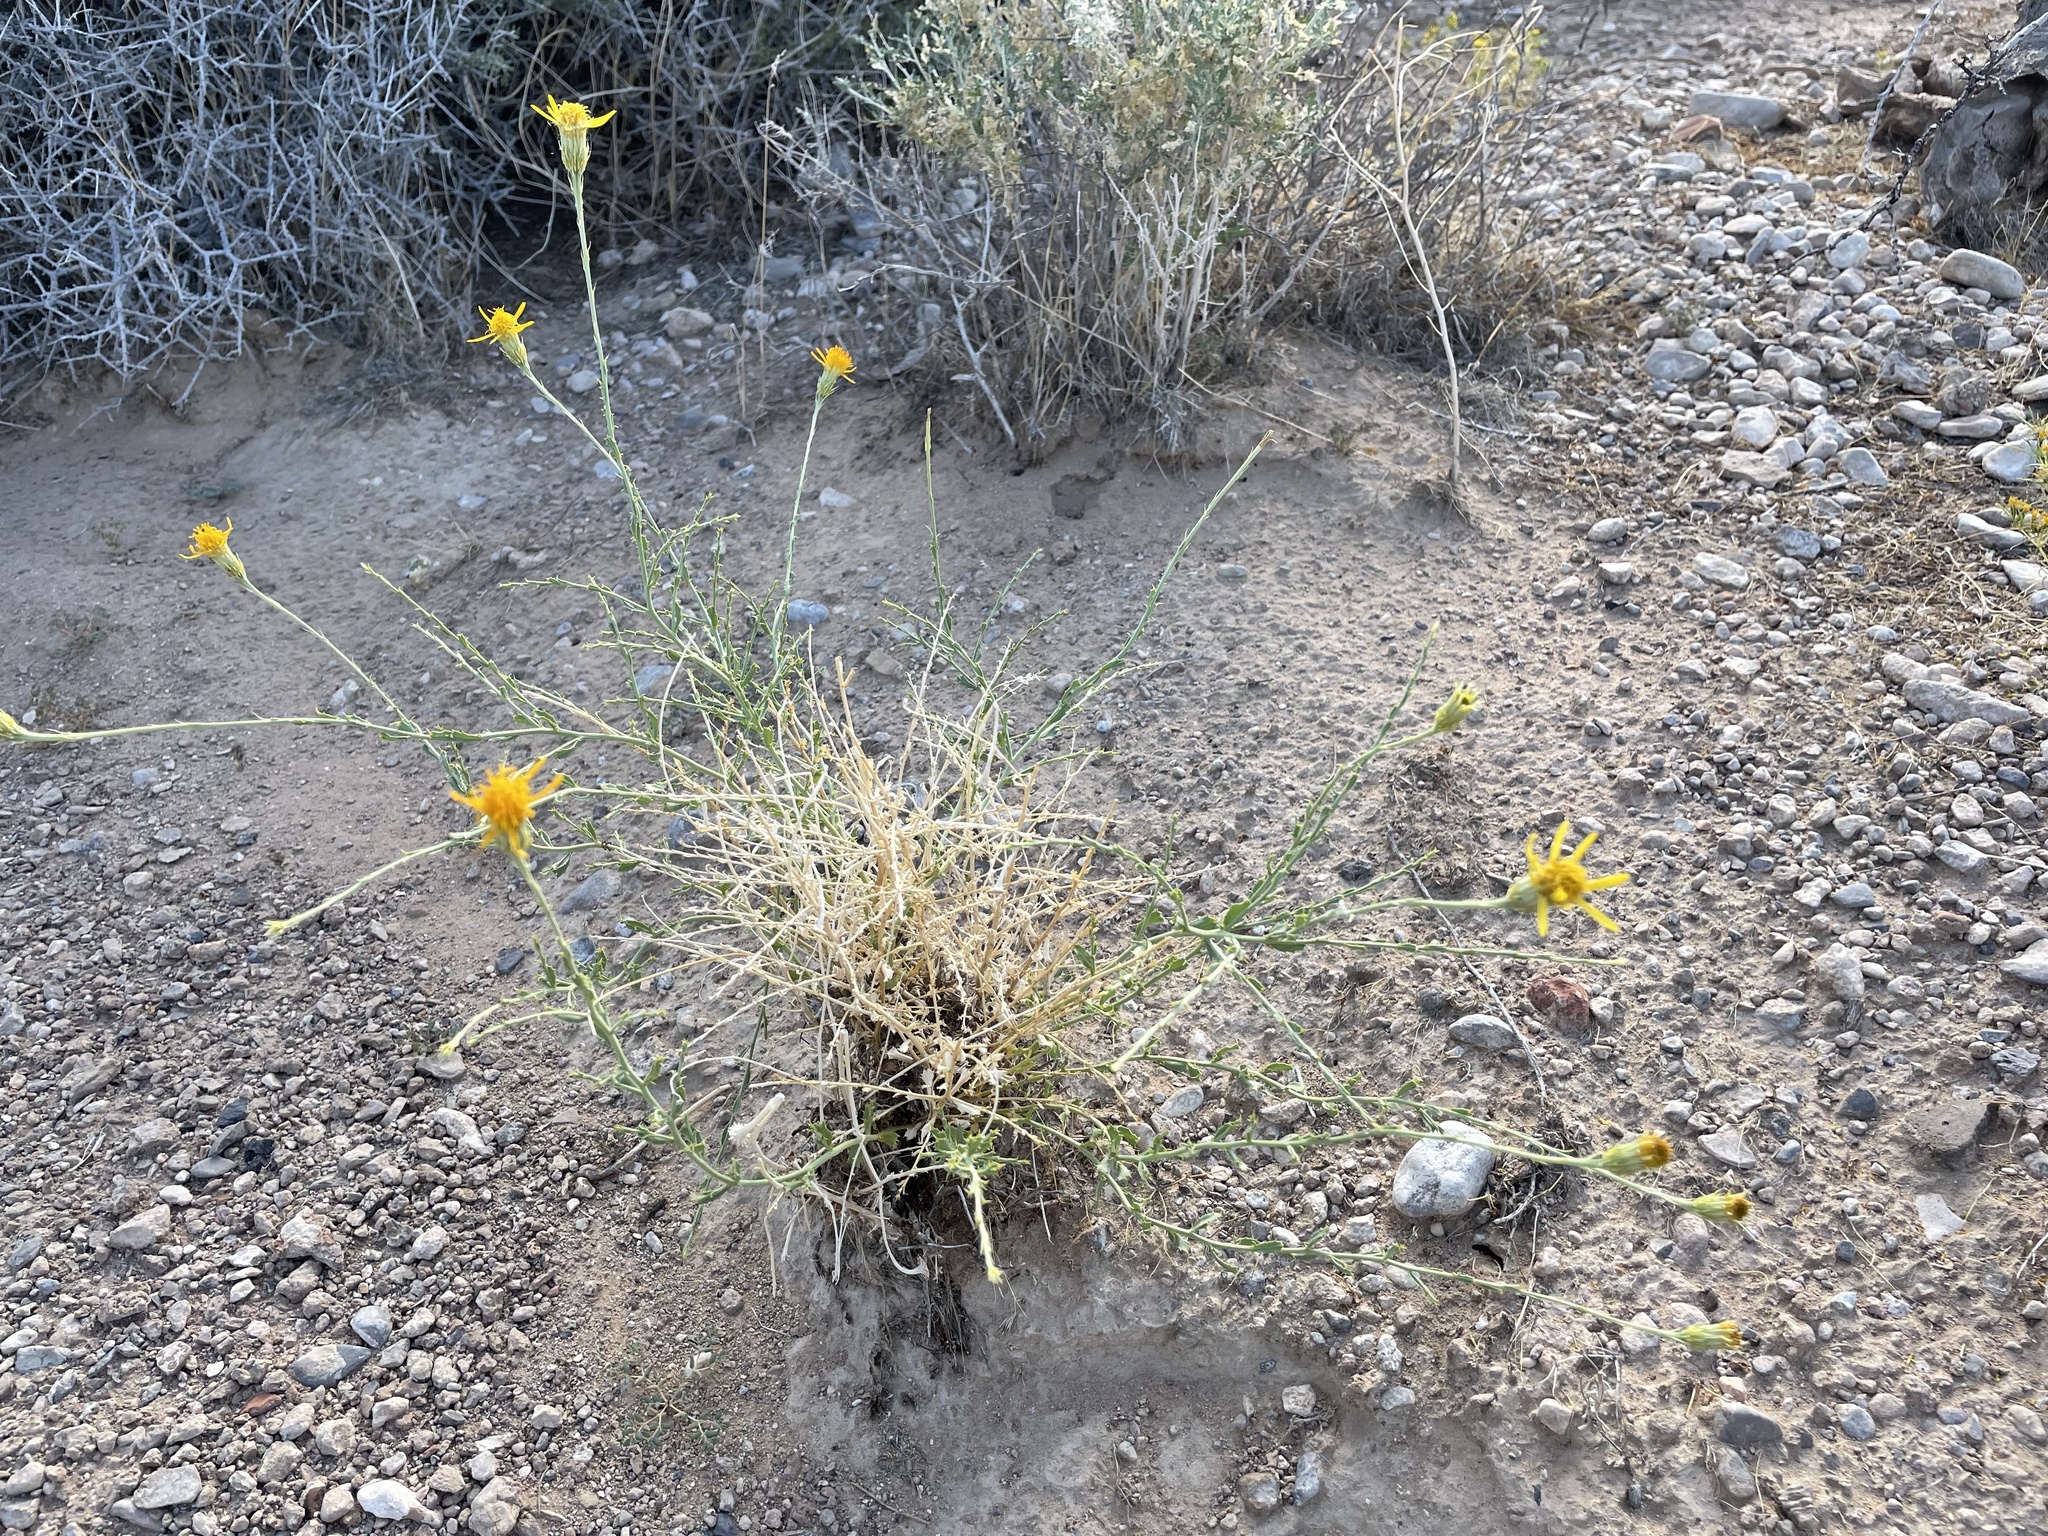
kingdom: Plantae
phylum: Tracheophyta
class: Magnoliopsida
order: Asterales
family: Asteraceae
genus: Adenophyllum
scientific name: Adenophyllum cooperi
